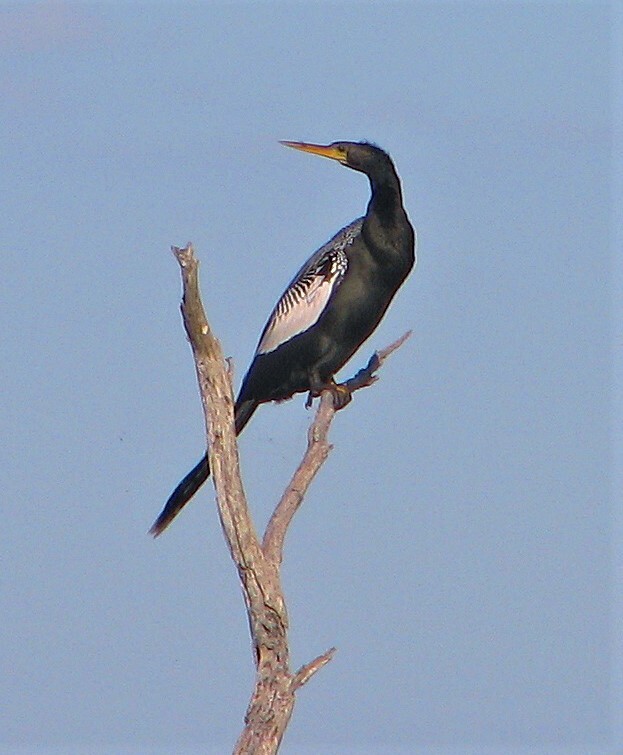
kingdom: Animalia
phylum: Chordata
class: Aves
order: Suliformes
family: Anhingidae
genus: Anhinga
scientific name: Anhinga anhinga
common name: Anhinga
